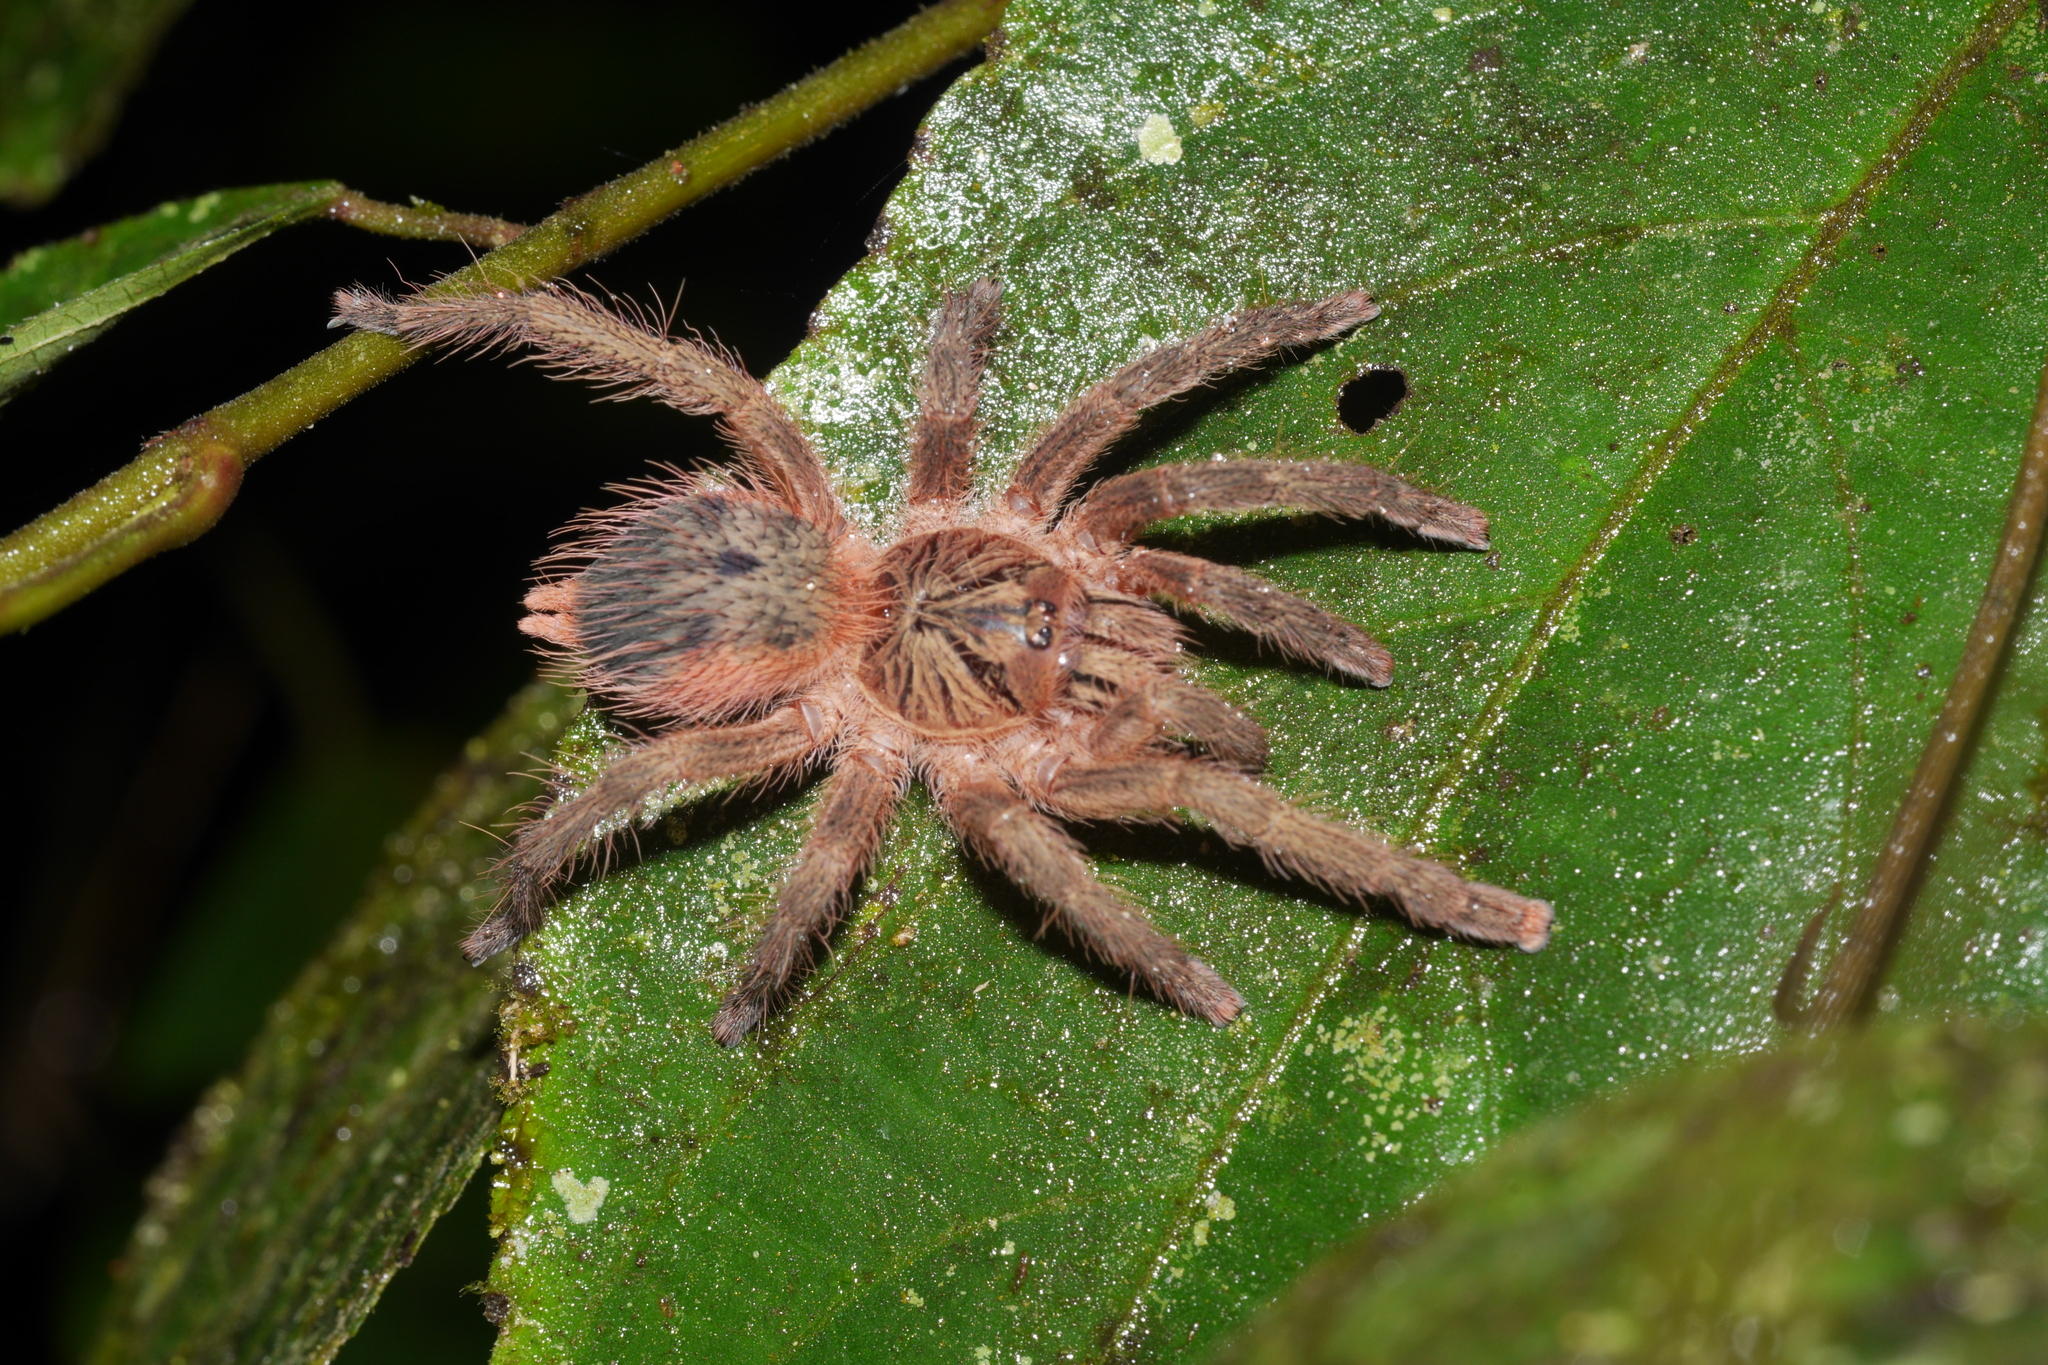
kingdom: Animalia
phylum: Arthropoda
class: Arachnida
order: Araneae
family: Theraphosidae
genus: Neischnocolus
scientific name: Neischnocolus
